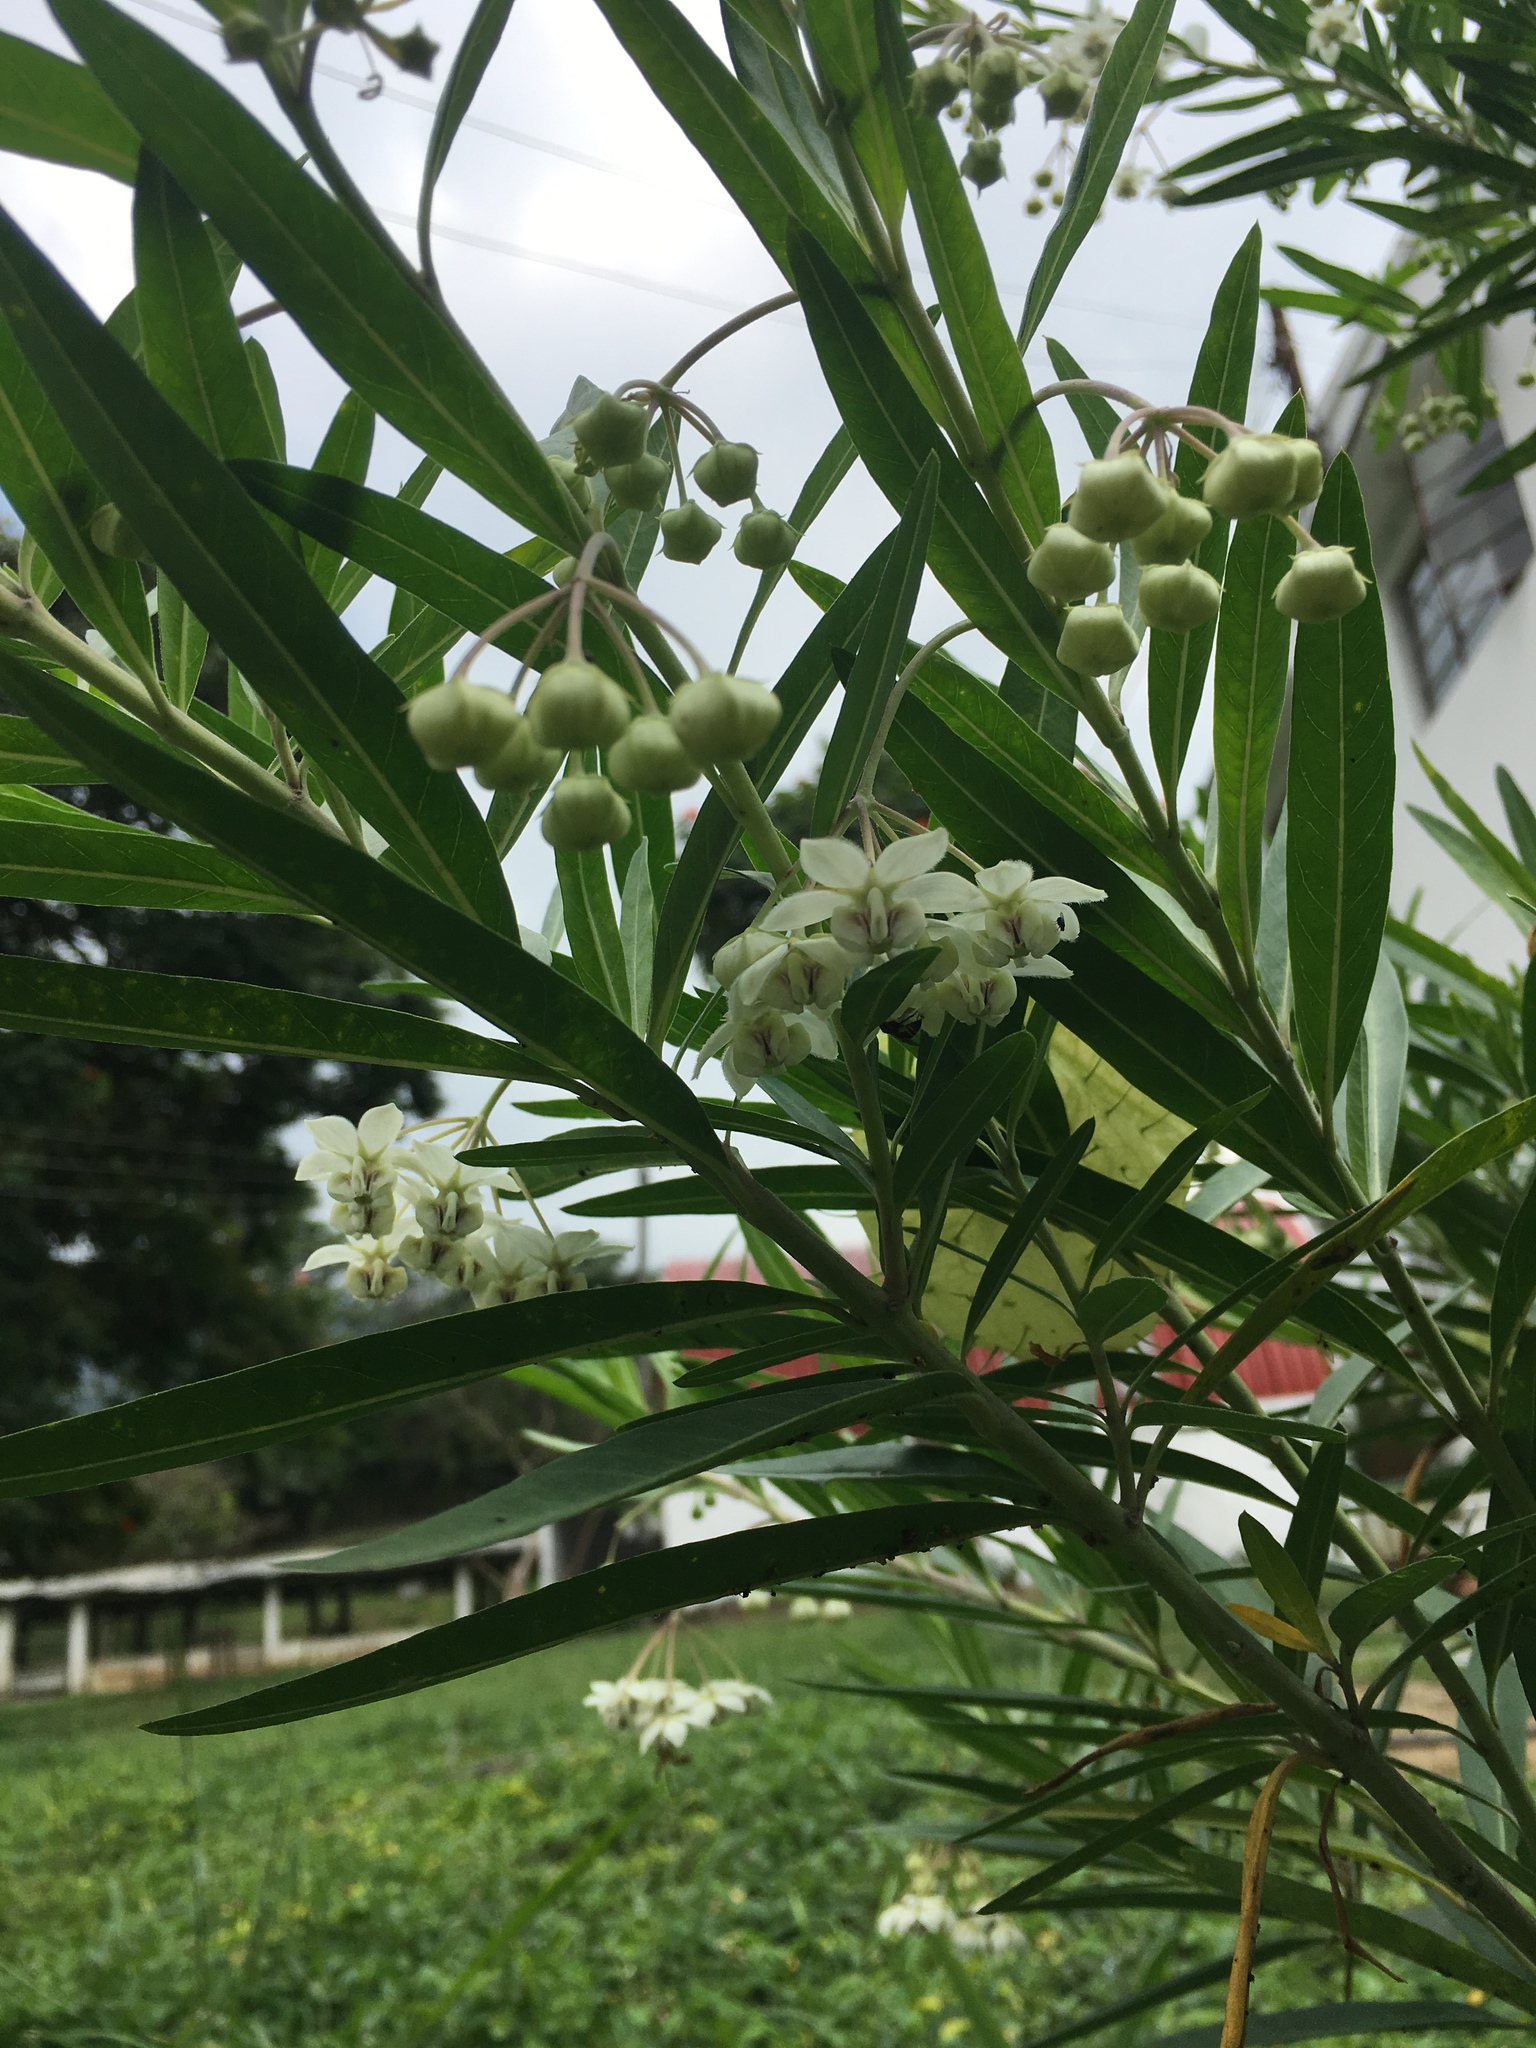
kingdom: Plantae
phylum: Tracheophyta
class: Magnoliopsida
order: Gentianales
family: Apocynaceae
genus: Gomphocarpus
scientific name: Gomphocarpus physocarpus
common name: Balloon cotton bush
